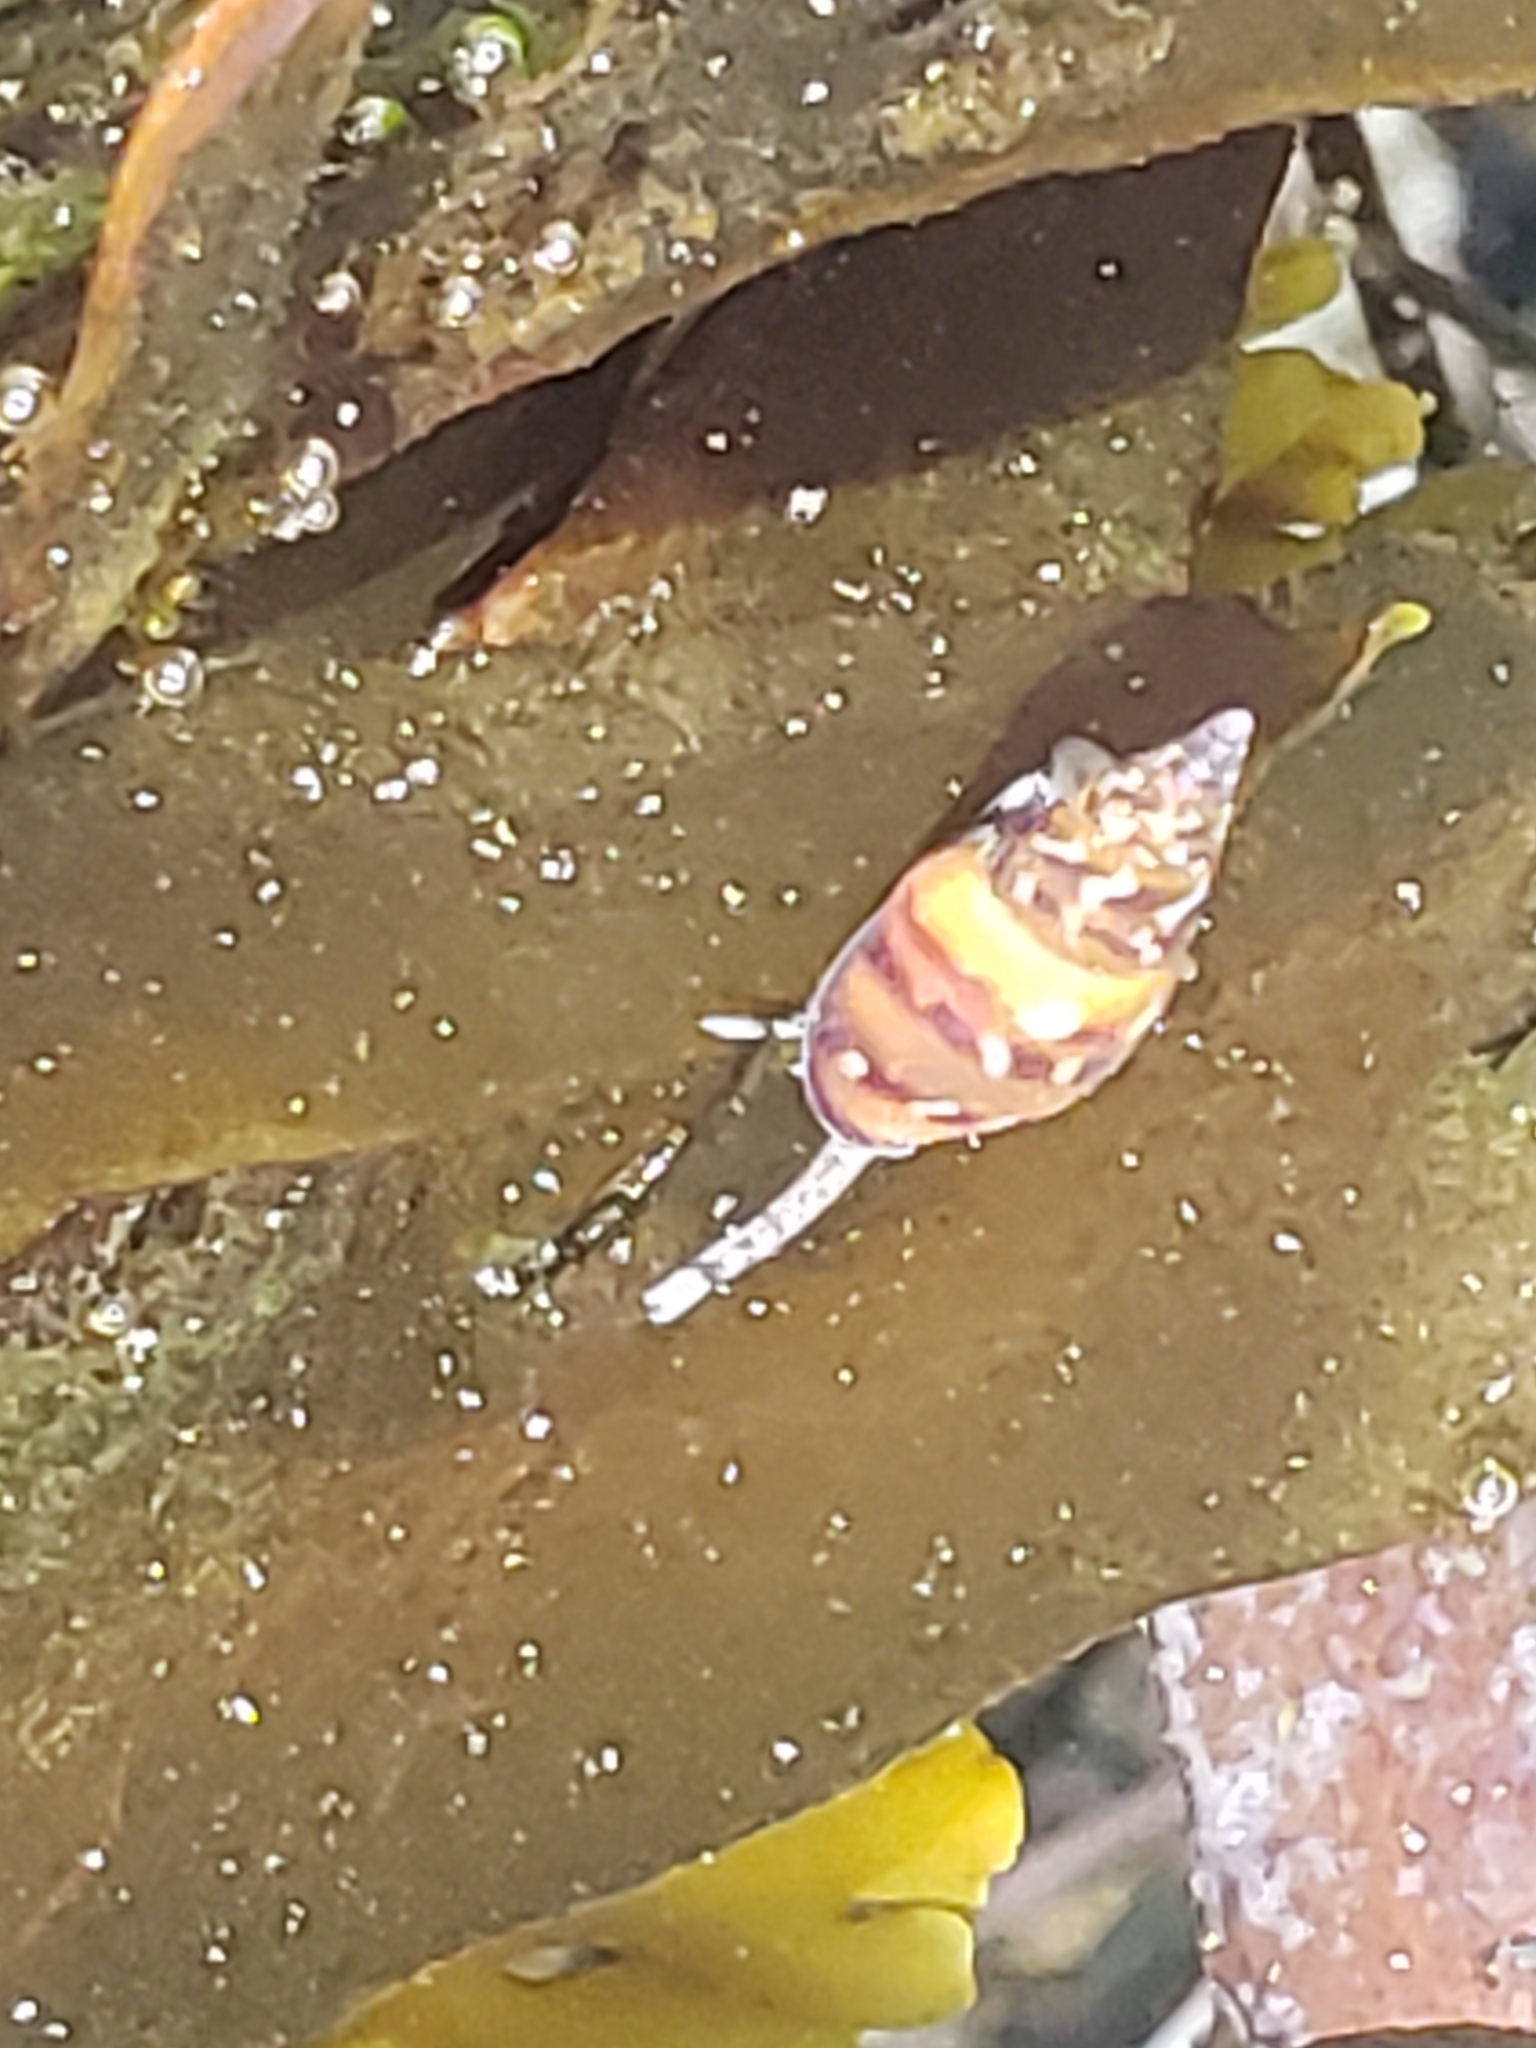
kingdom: Animalia
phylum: Mollusca
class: Gastropoda
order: Neogastropoda
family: Columbellidae
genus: Alia
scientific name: Alia carinata
